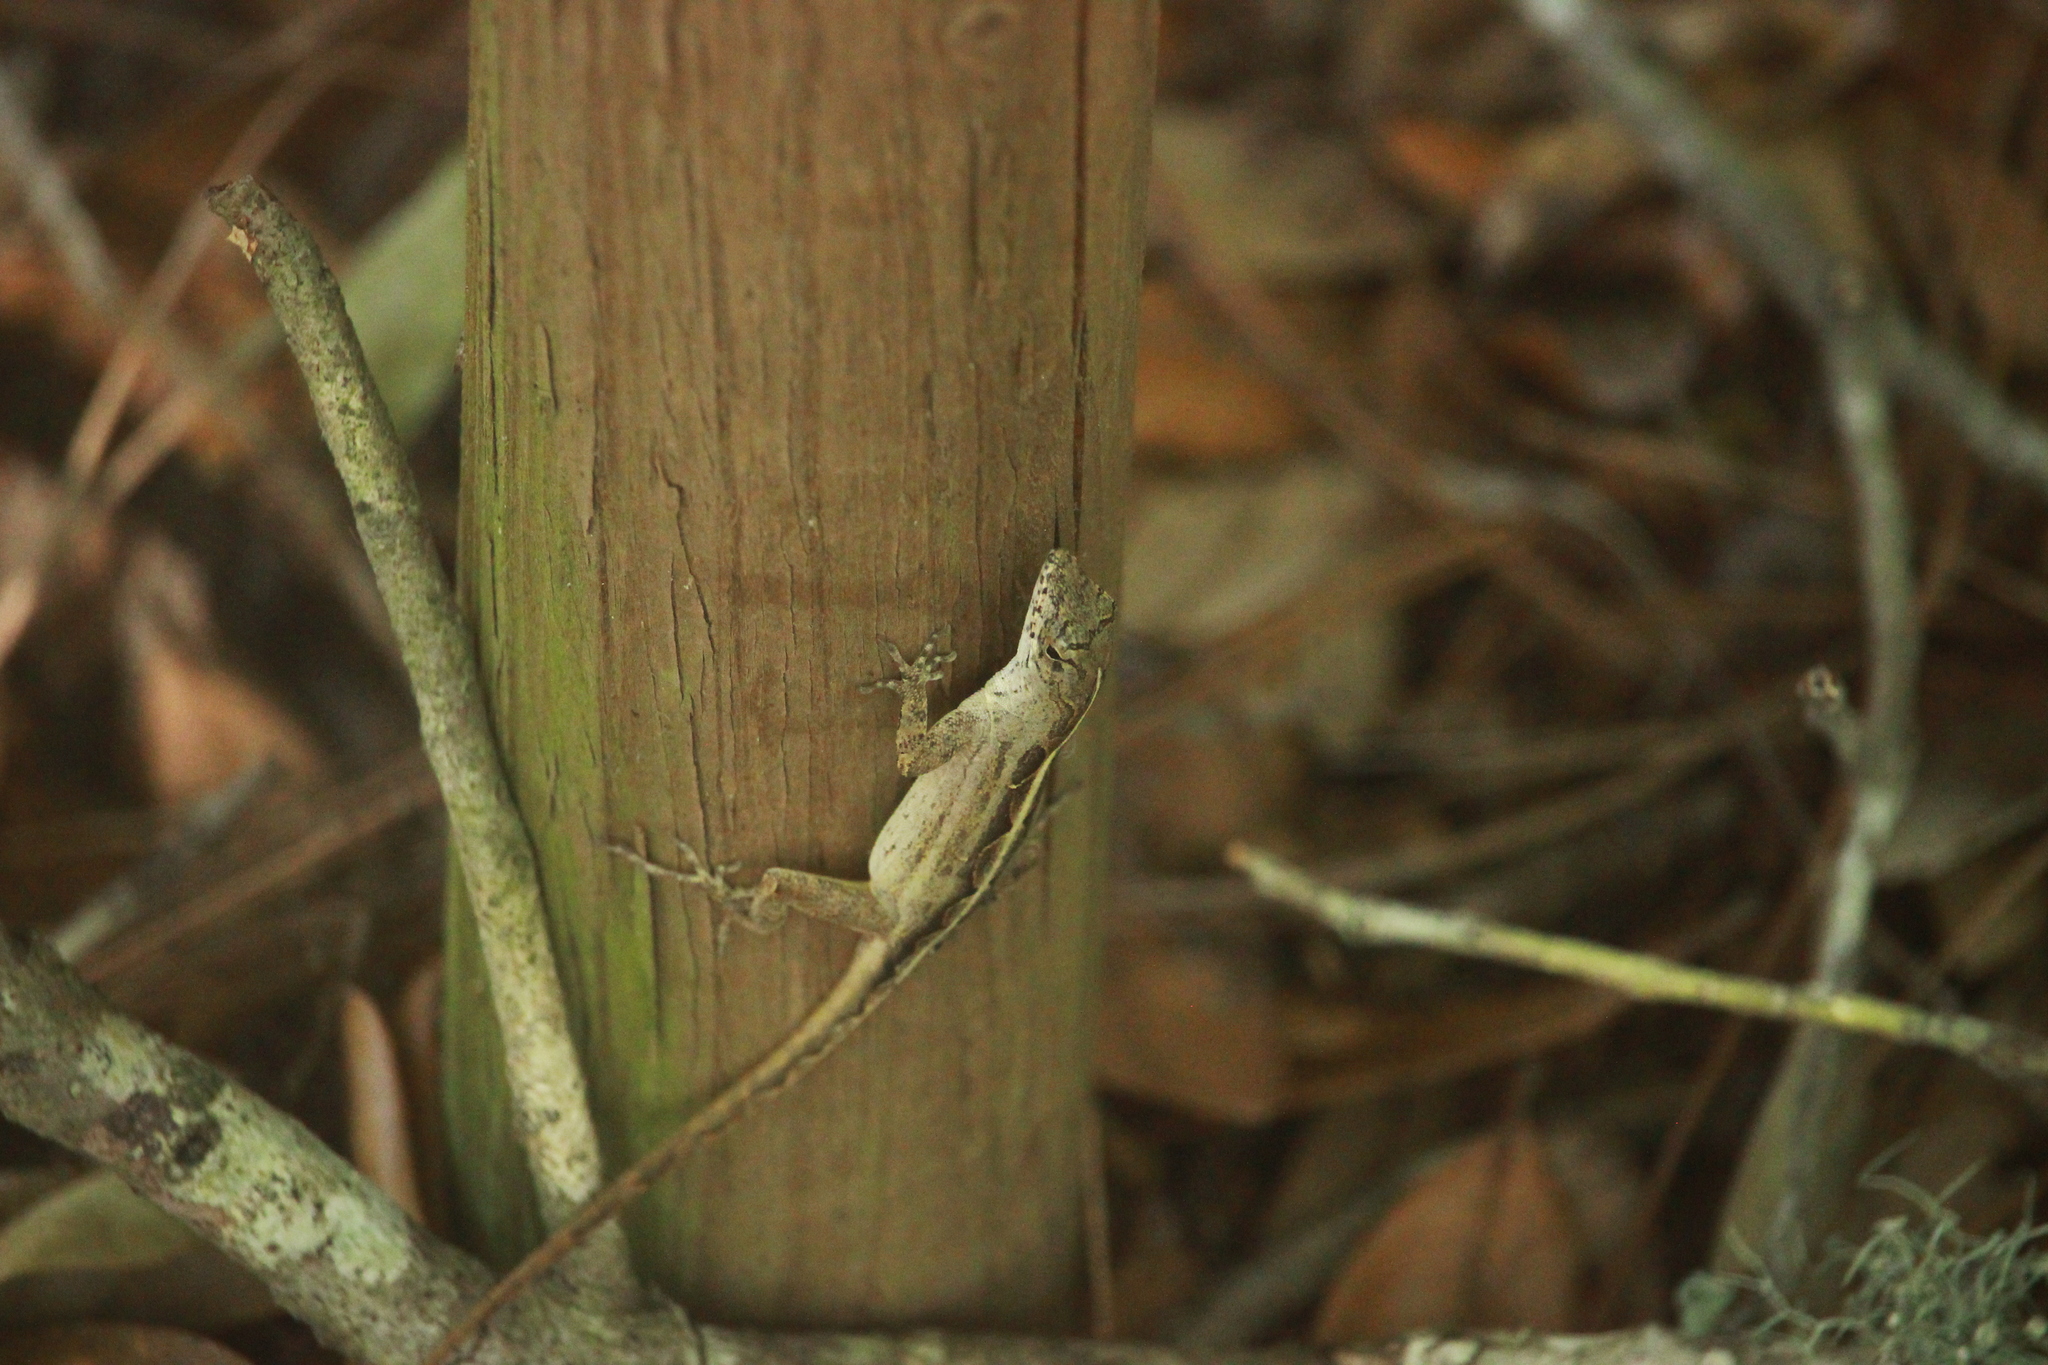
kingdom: Animalia
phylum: Chordata
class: Squamata
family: Dactyloidae
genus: Anolis
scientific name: Anolis sagrei
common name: Brown anole
